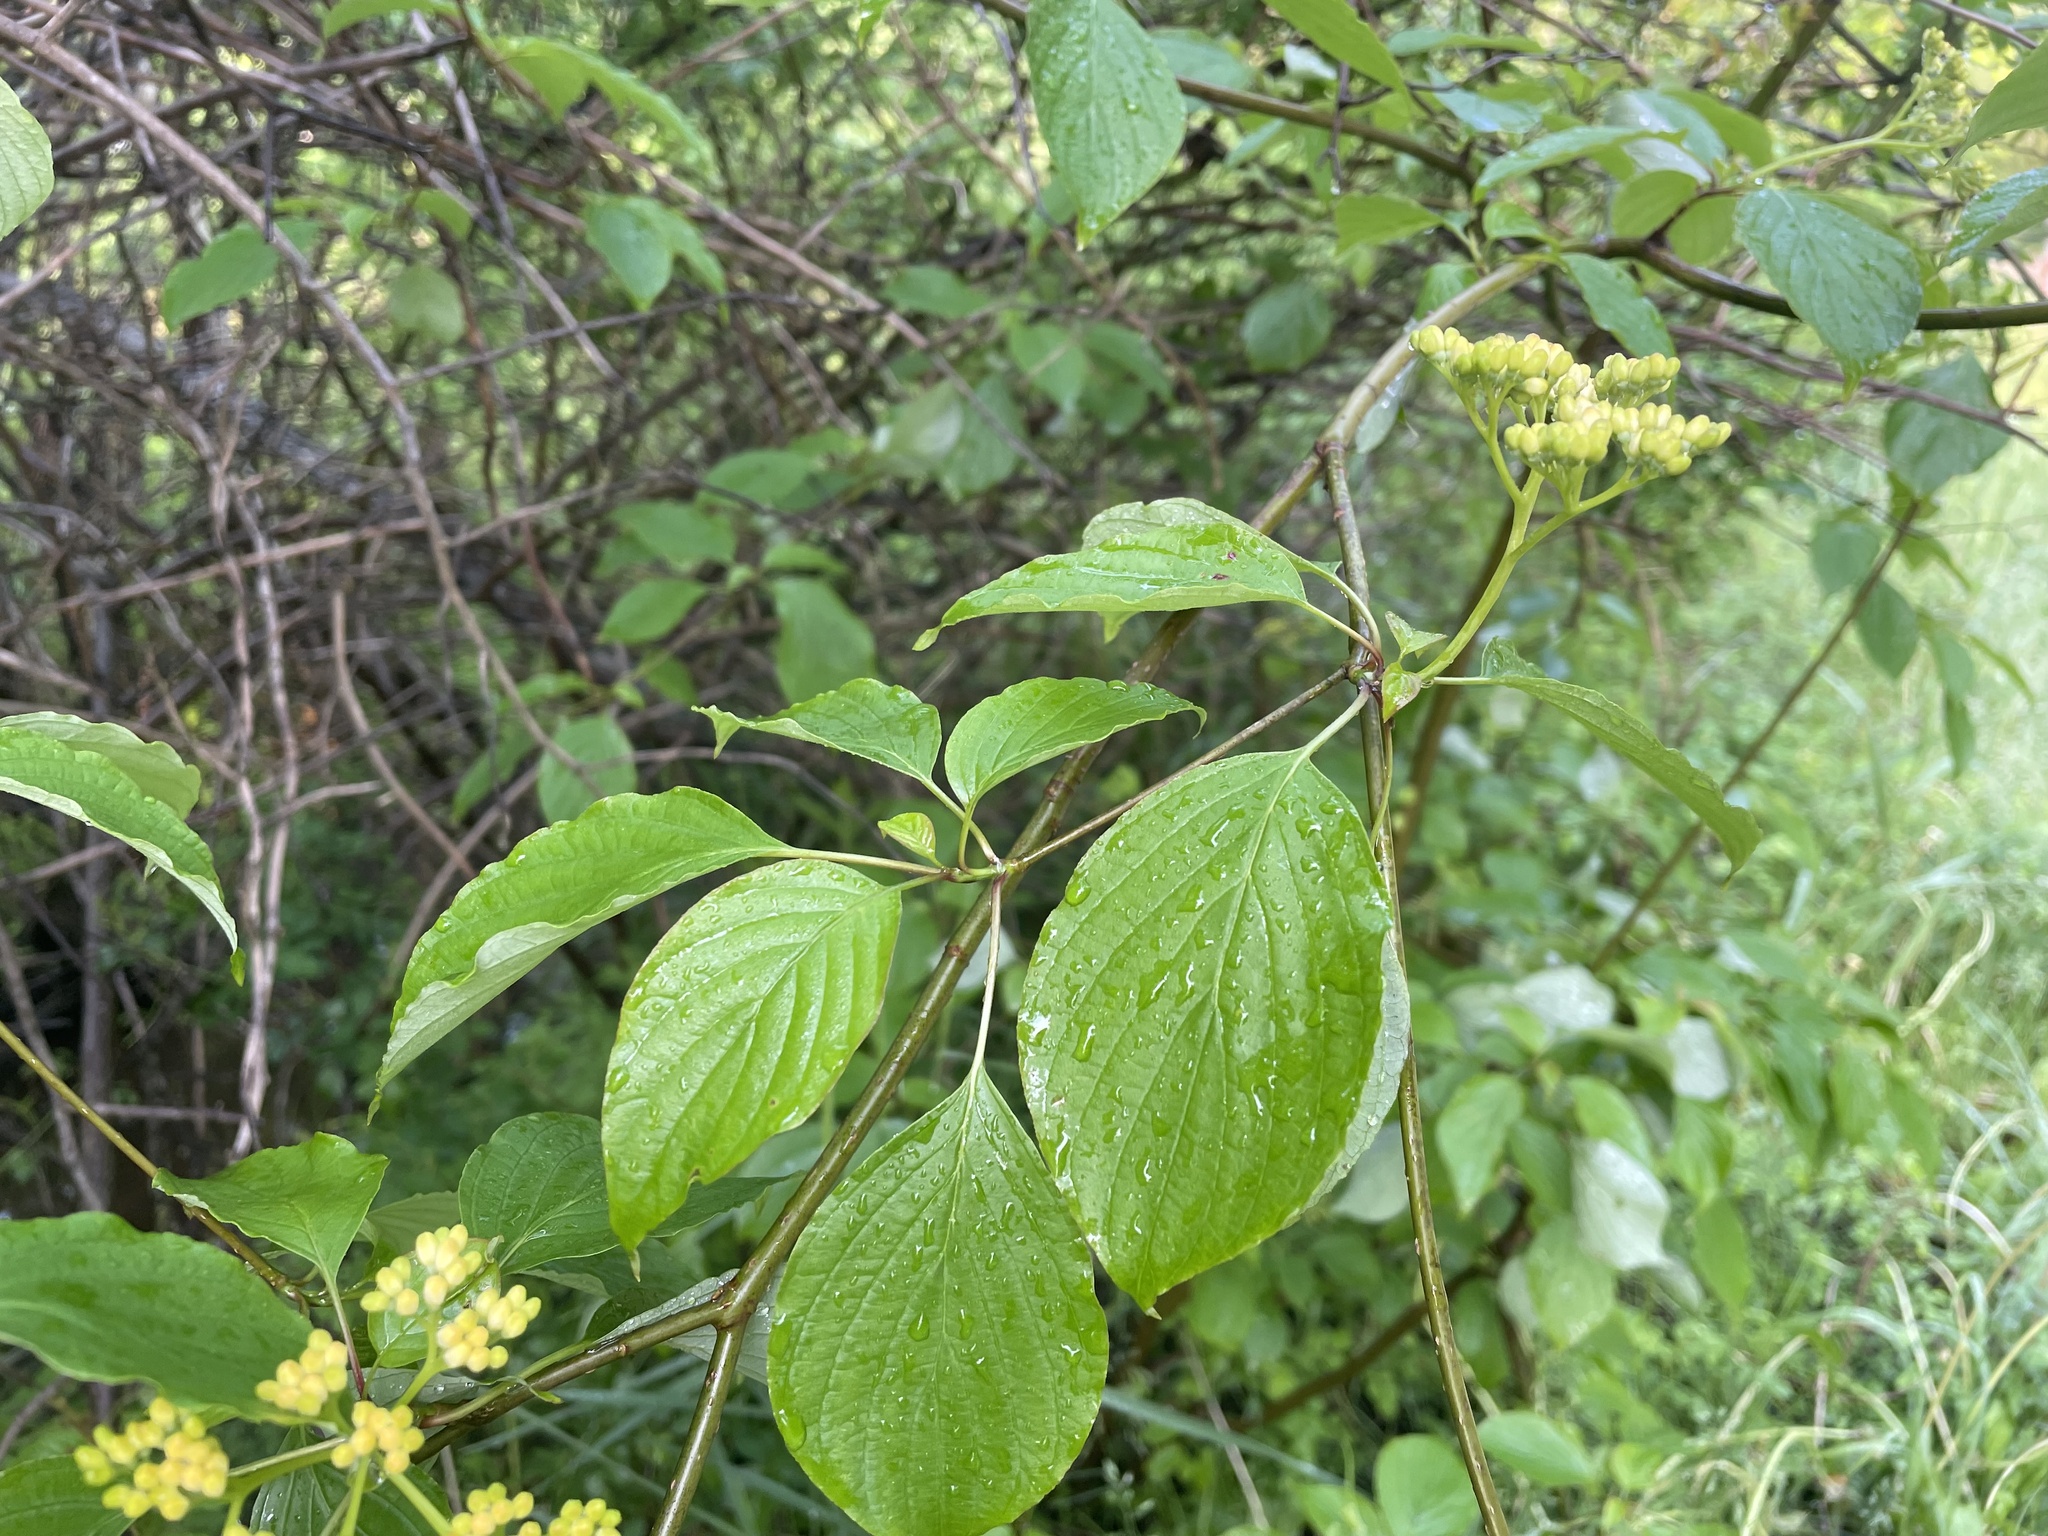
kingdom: Plantae
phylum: Tracheophyta
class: Magnoliopsida
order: Cornales
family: Cornaceae
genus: Cornus
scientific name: Cornus alternifolia
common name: Pagoda dogwood
